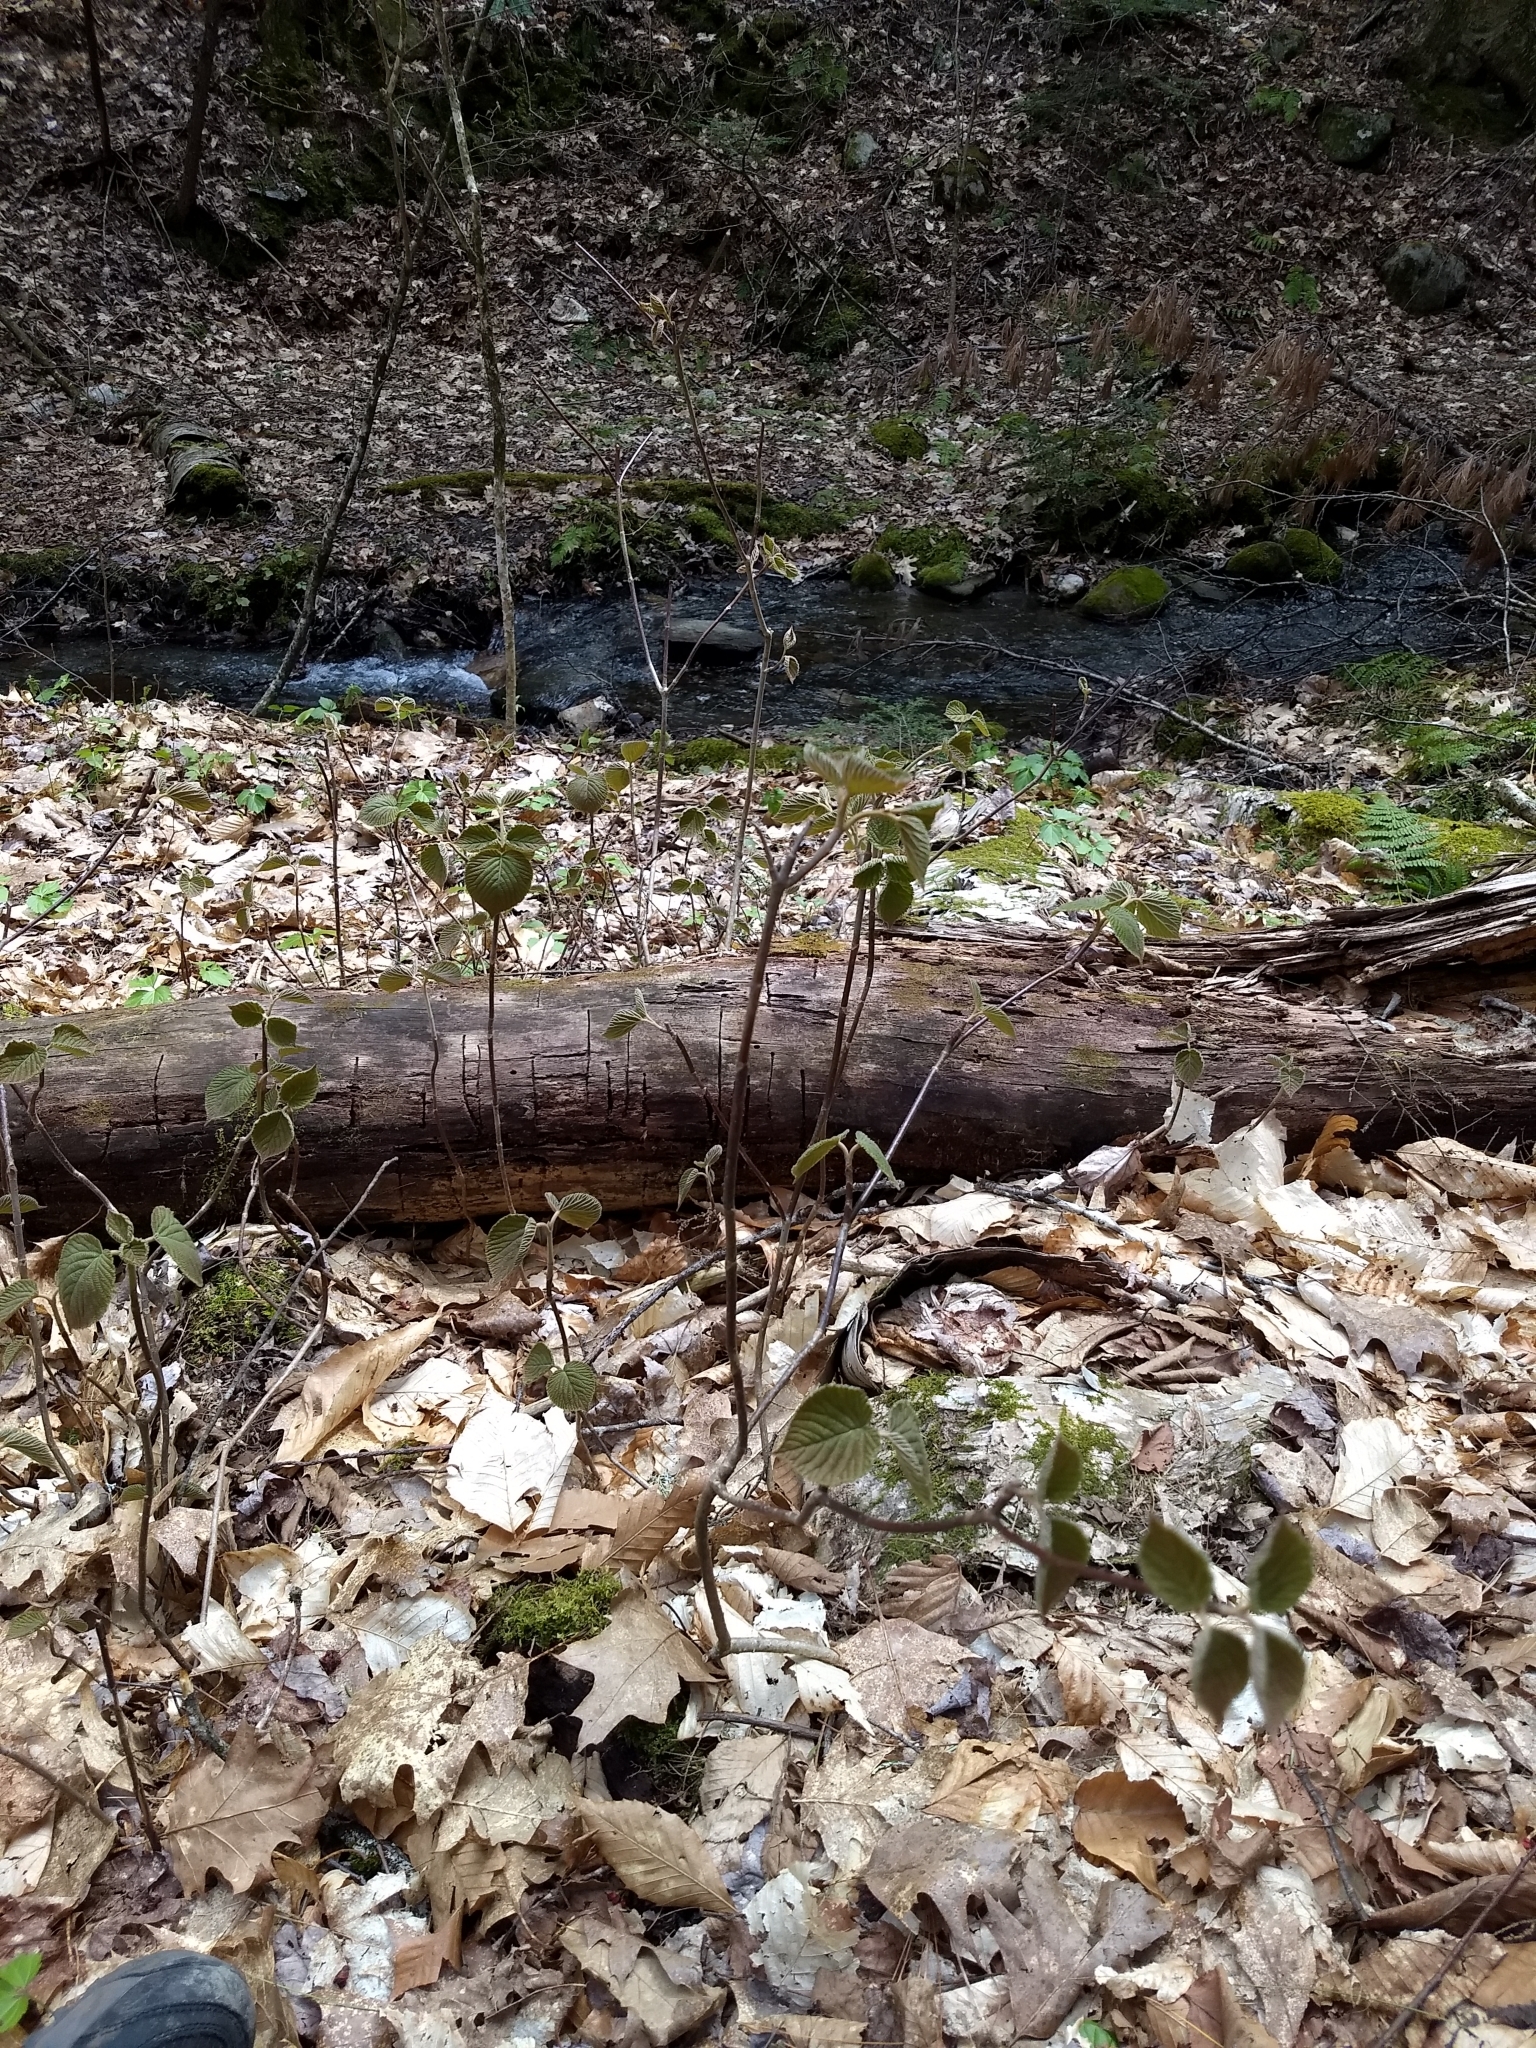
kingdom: Plantae
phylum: Tracheophyta
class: Magnoliopsida
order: Dipsacales
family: Viburnaceae
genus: Viburnum
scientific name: Viburnum lantanoides
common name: Hobblebush
